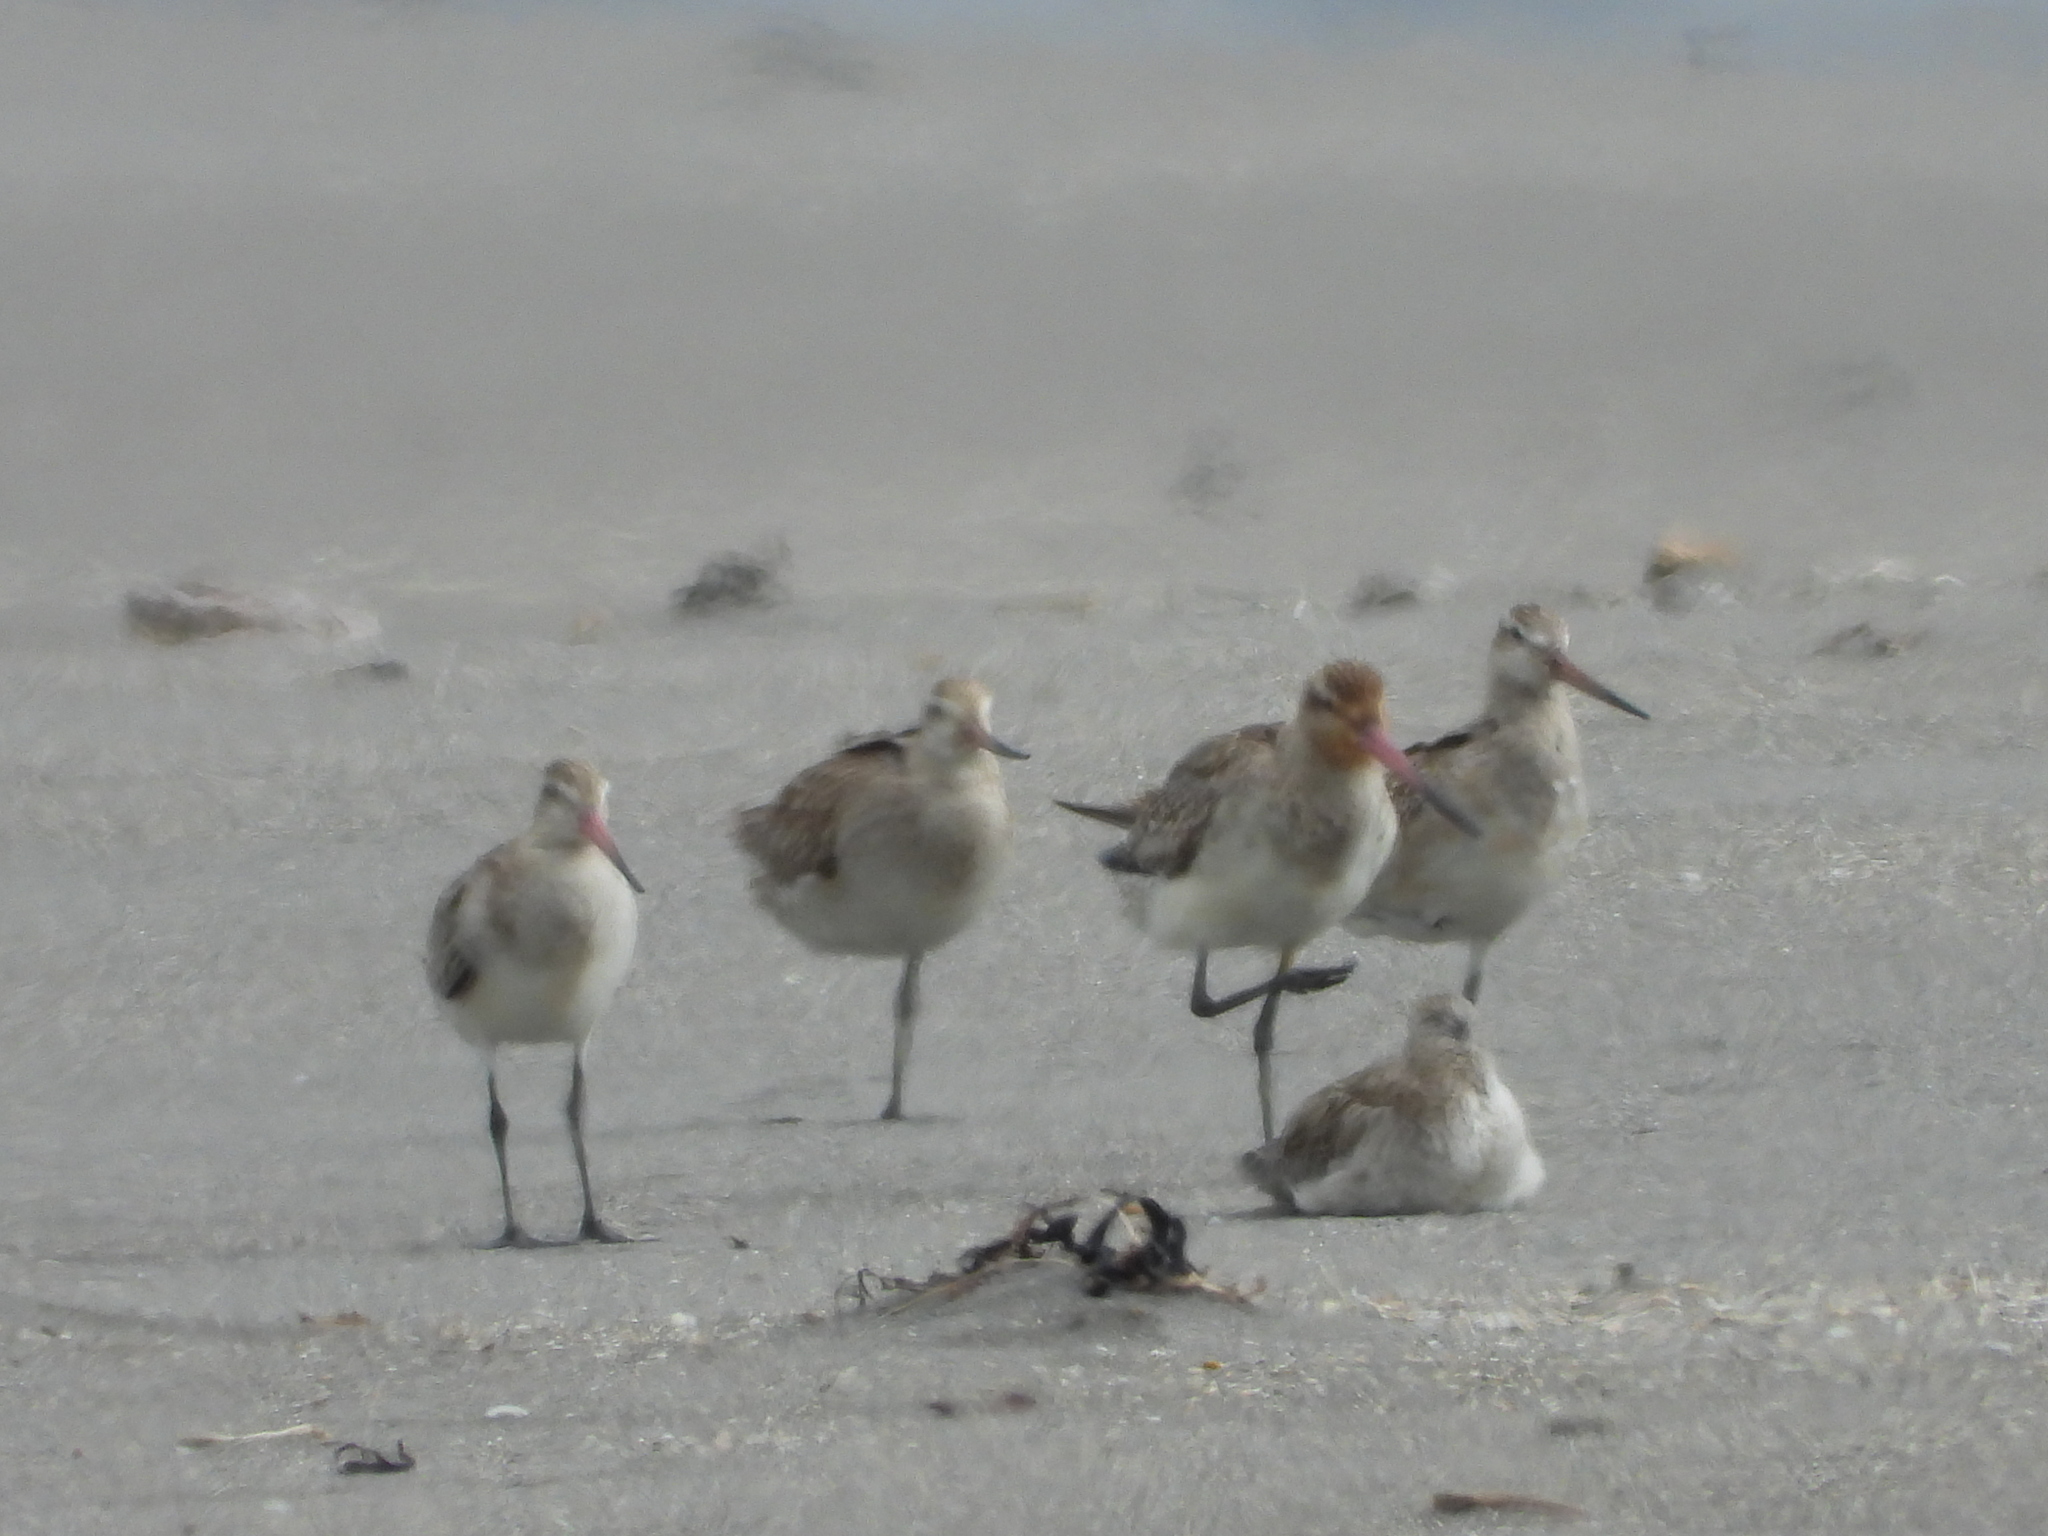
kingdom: Animalia
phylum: Chordata
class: Aves
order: Charadriiformes
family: Scolopacidae
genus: Limosa
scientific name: Limosa lapponica
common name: Bar-tailed godwit
